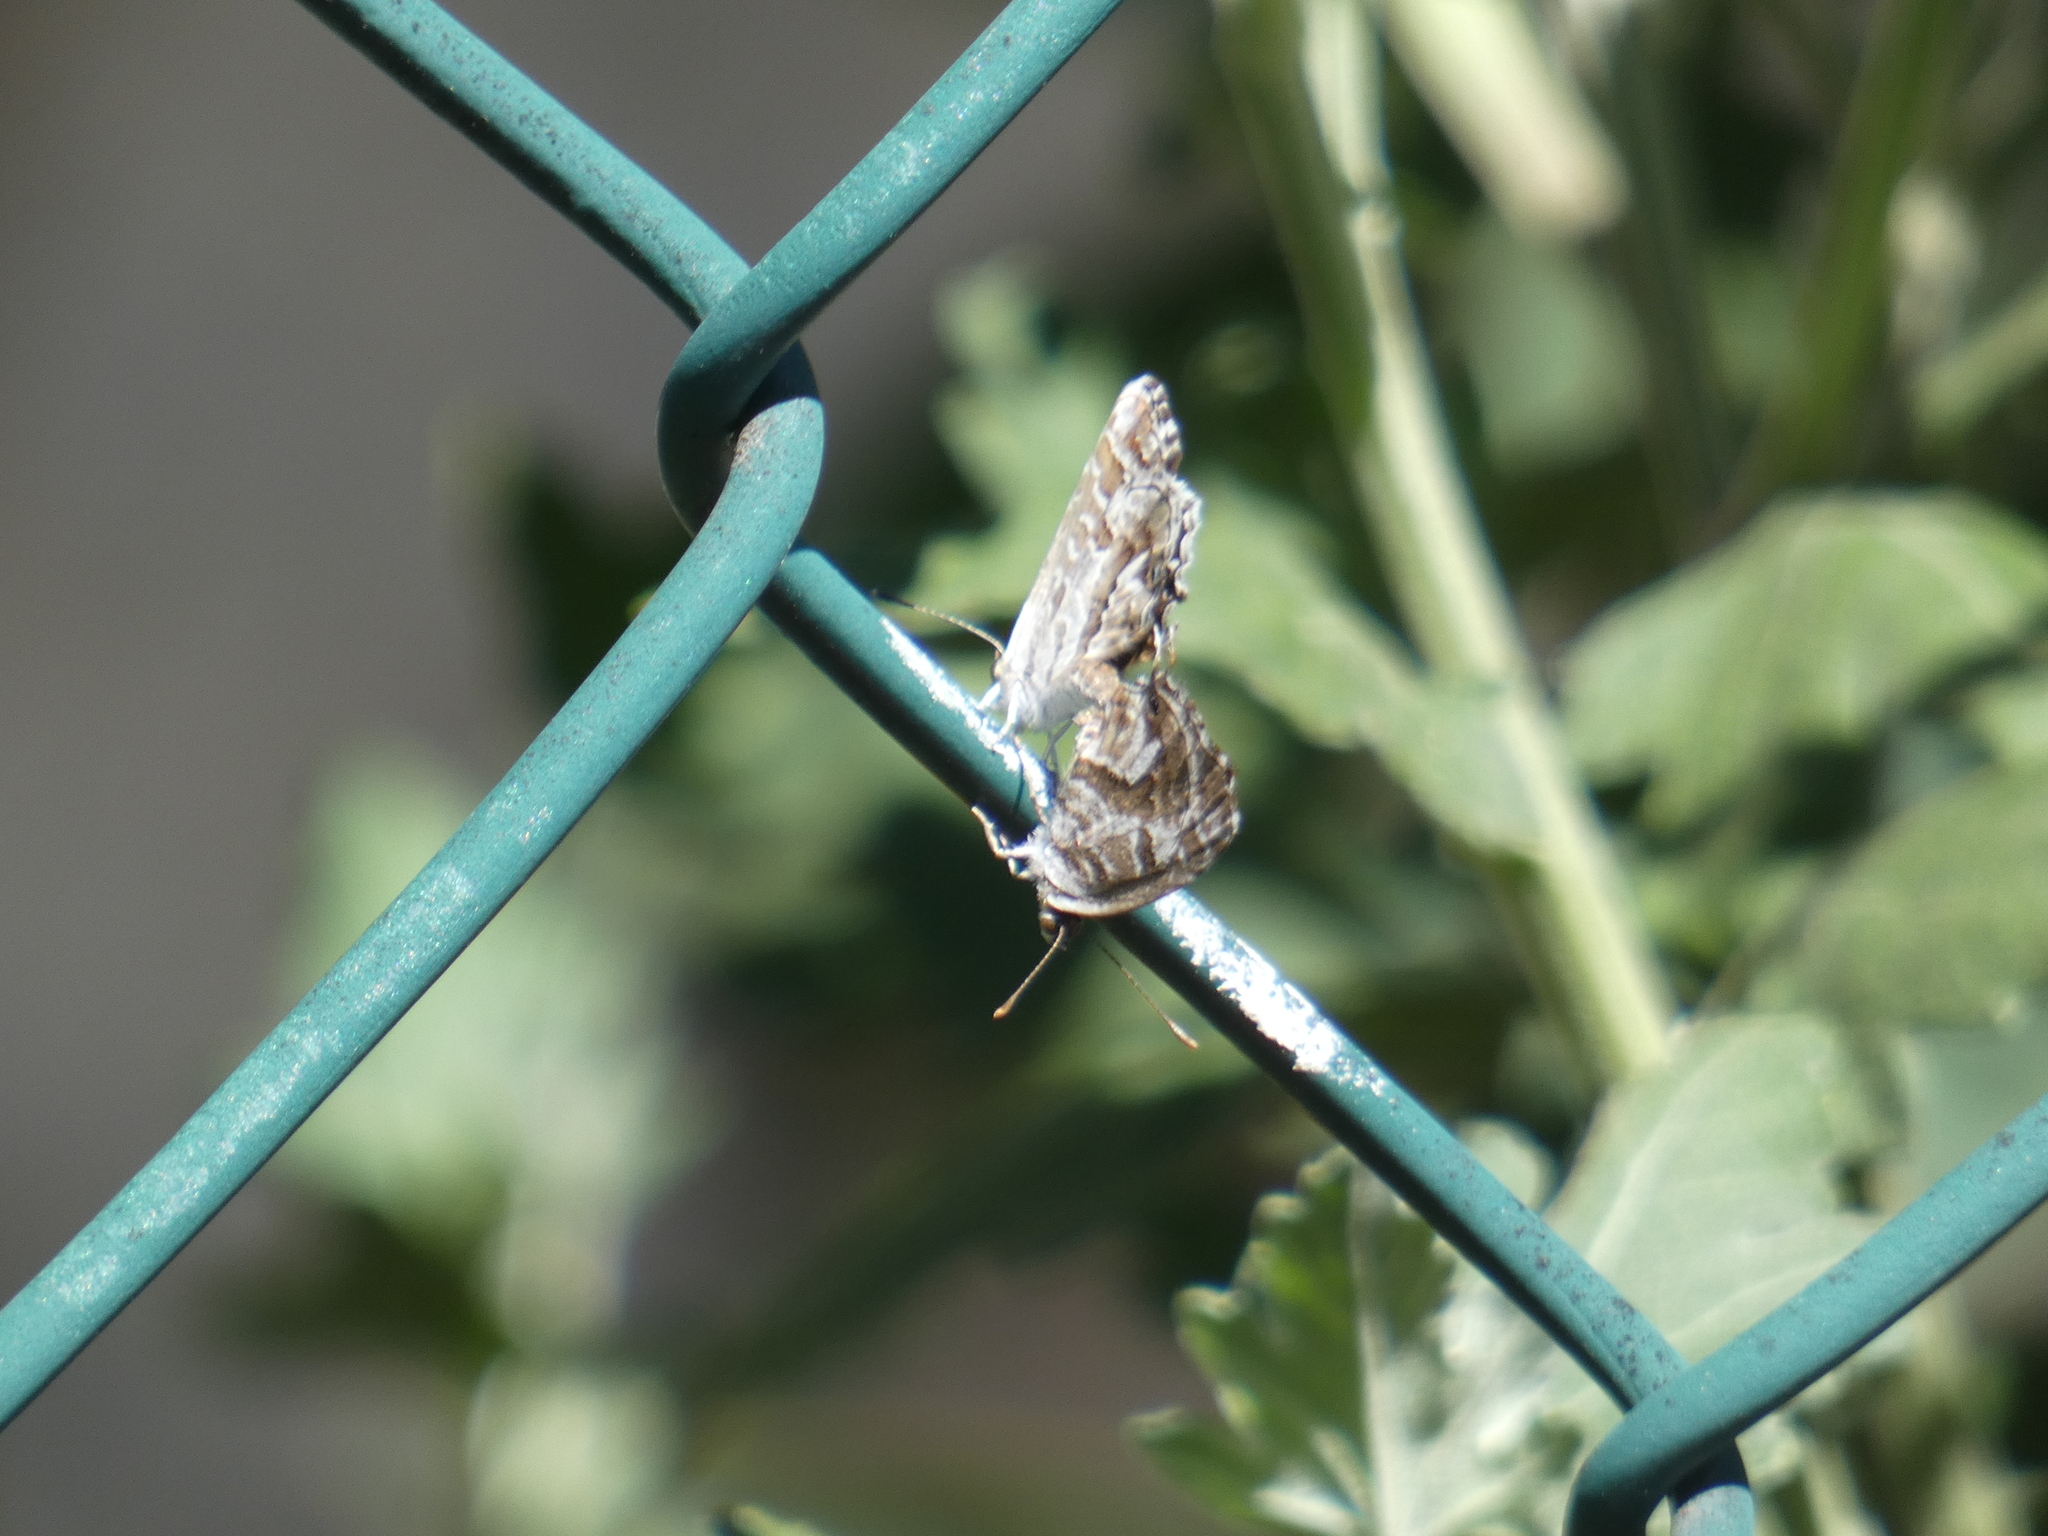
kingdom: Animalia
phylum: Arthropoda
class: Insecta
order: Lepidoptera
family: Lycaenidae
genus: Cacyreus
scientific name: Cacyreus marshalli
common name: Geranium bronze
